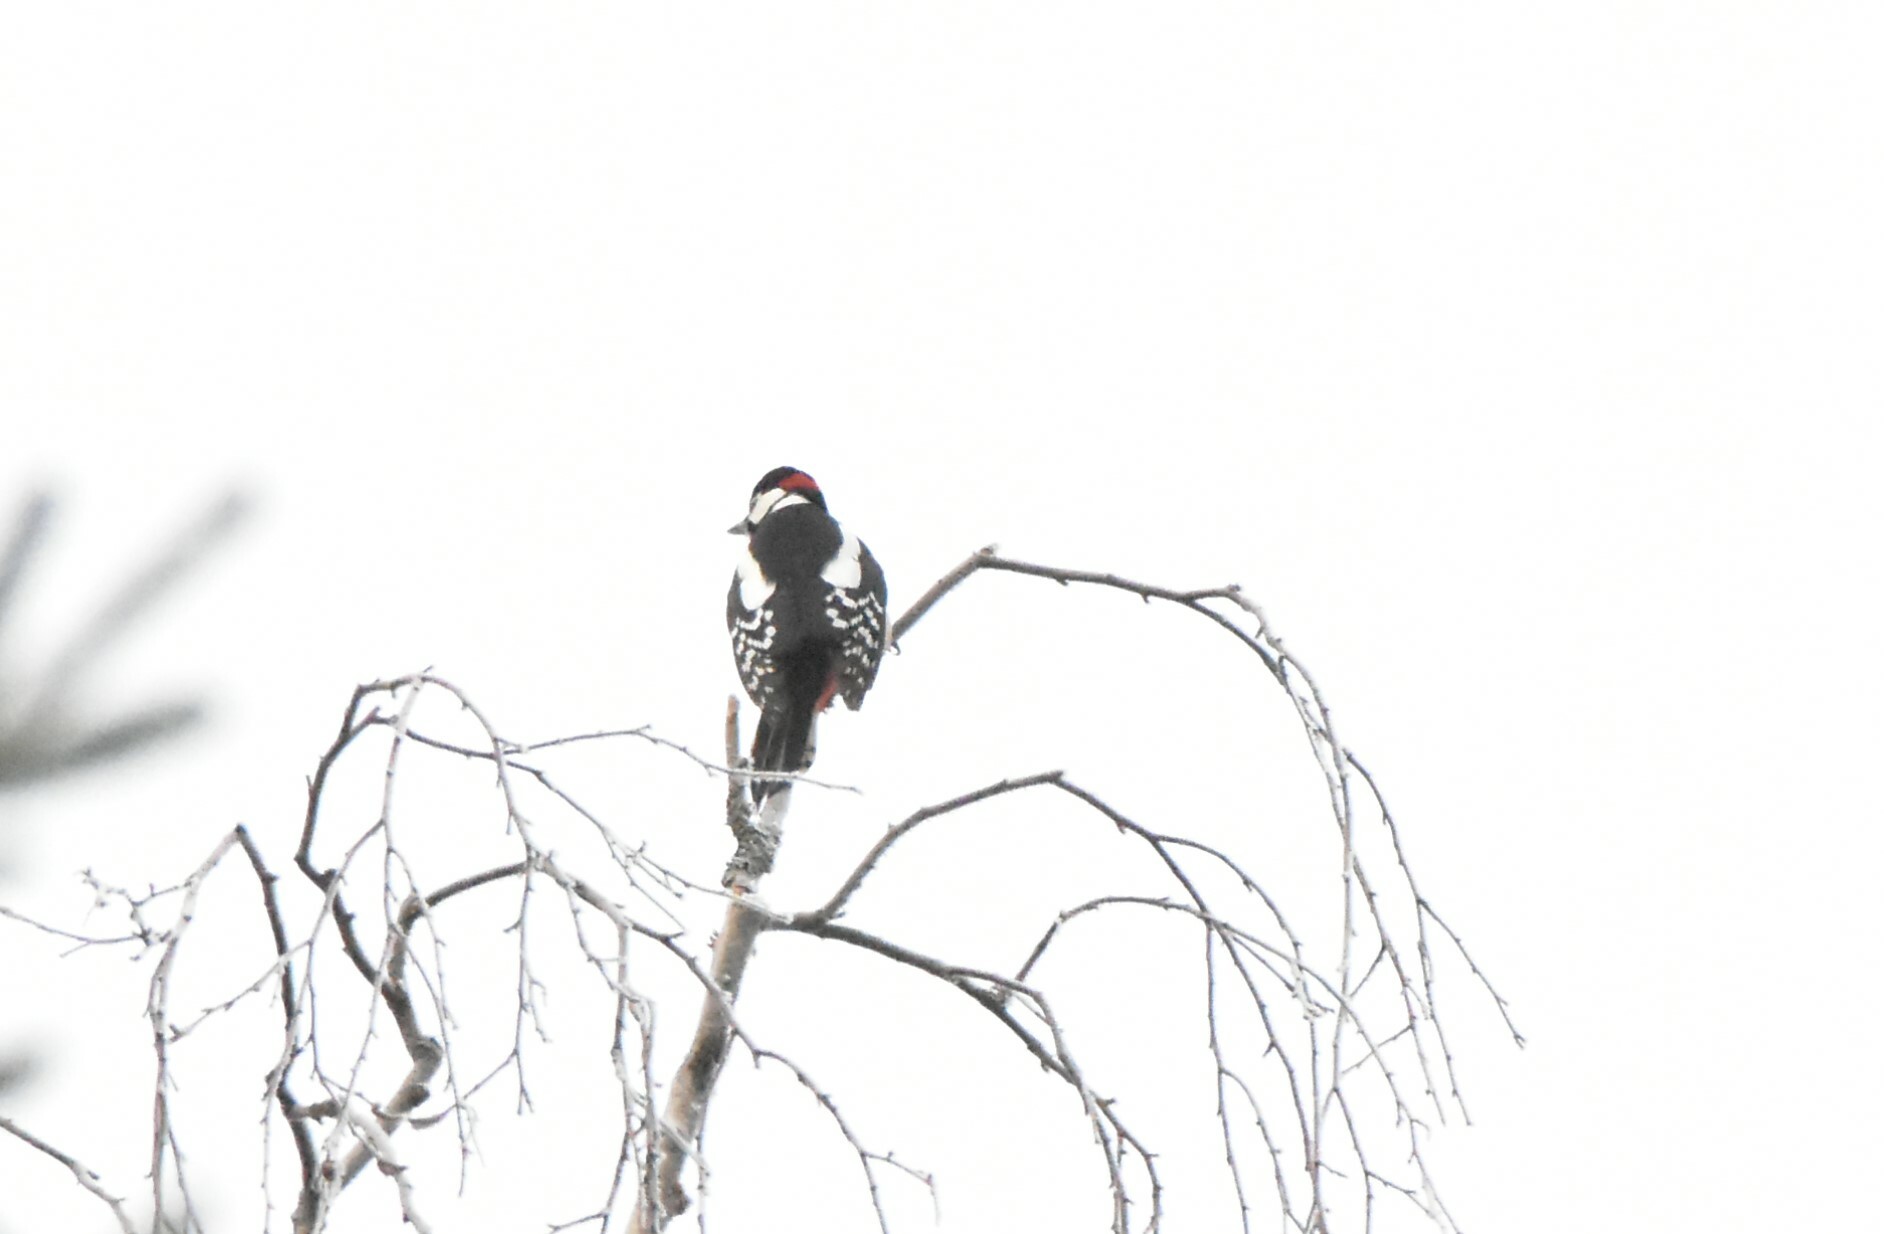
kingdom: Animalia
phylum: Chordata
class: Aves
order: Piciformes
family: Picidae
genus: Dendrocopos
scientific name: Dendrocopos major
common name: Great spotted woodpecker
